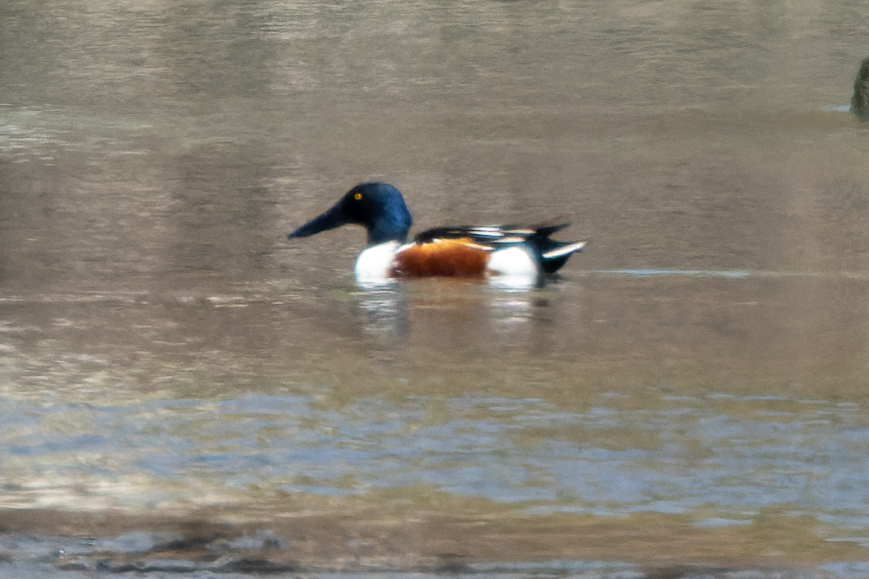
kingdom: Animalia
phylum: Chordata
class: Aves
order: Anseriformes
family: Anatidae
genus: Spatula
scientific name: Spatula clypeata
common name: Northern shoveler
